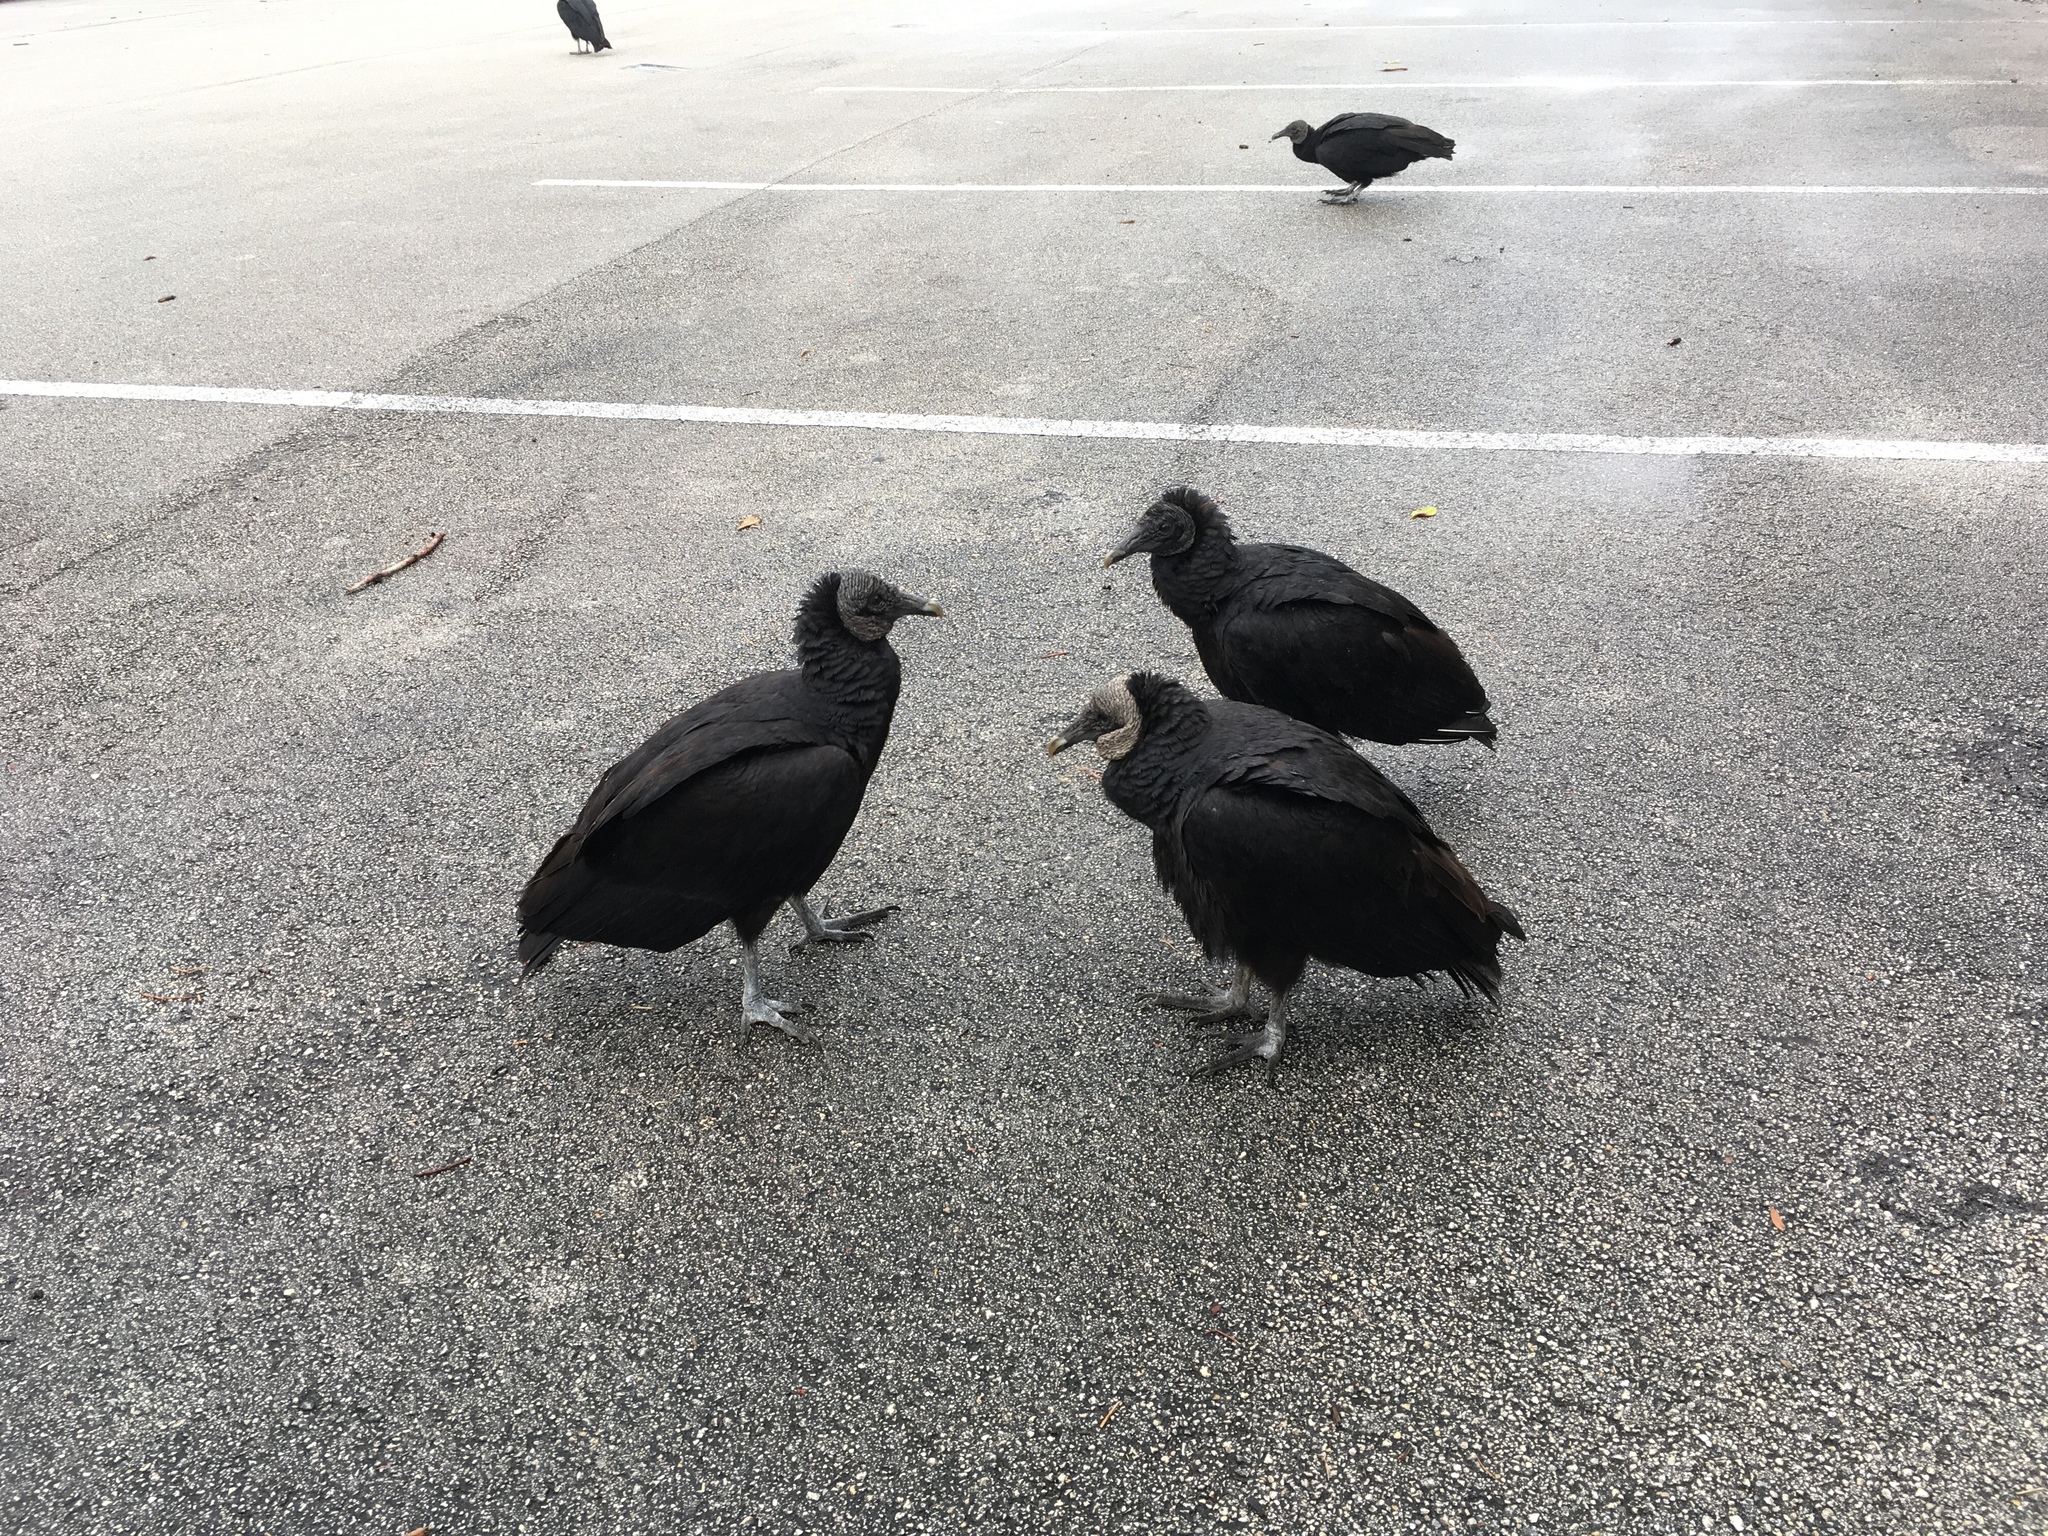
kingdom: Animalia
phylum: Chordata
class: Aves
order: Accipitriformes
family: Cathartidae
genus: Coragyps
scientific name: Coragyps atratus
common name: Black vulture
